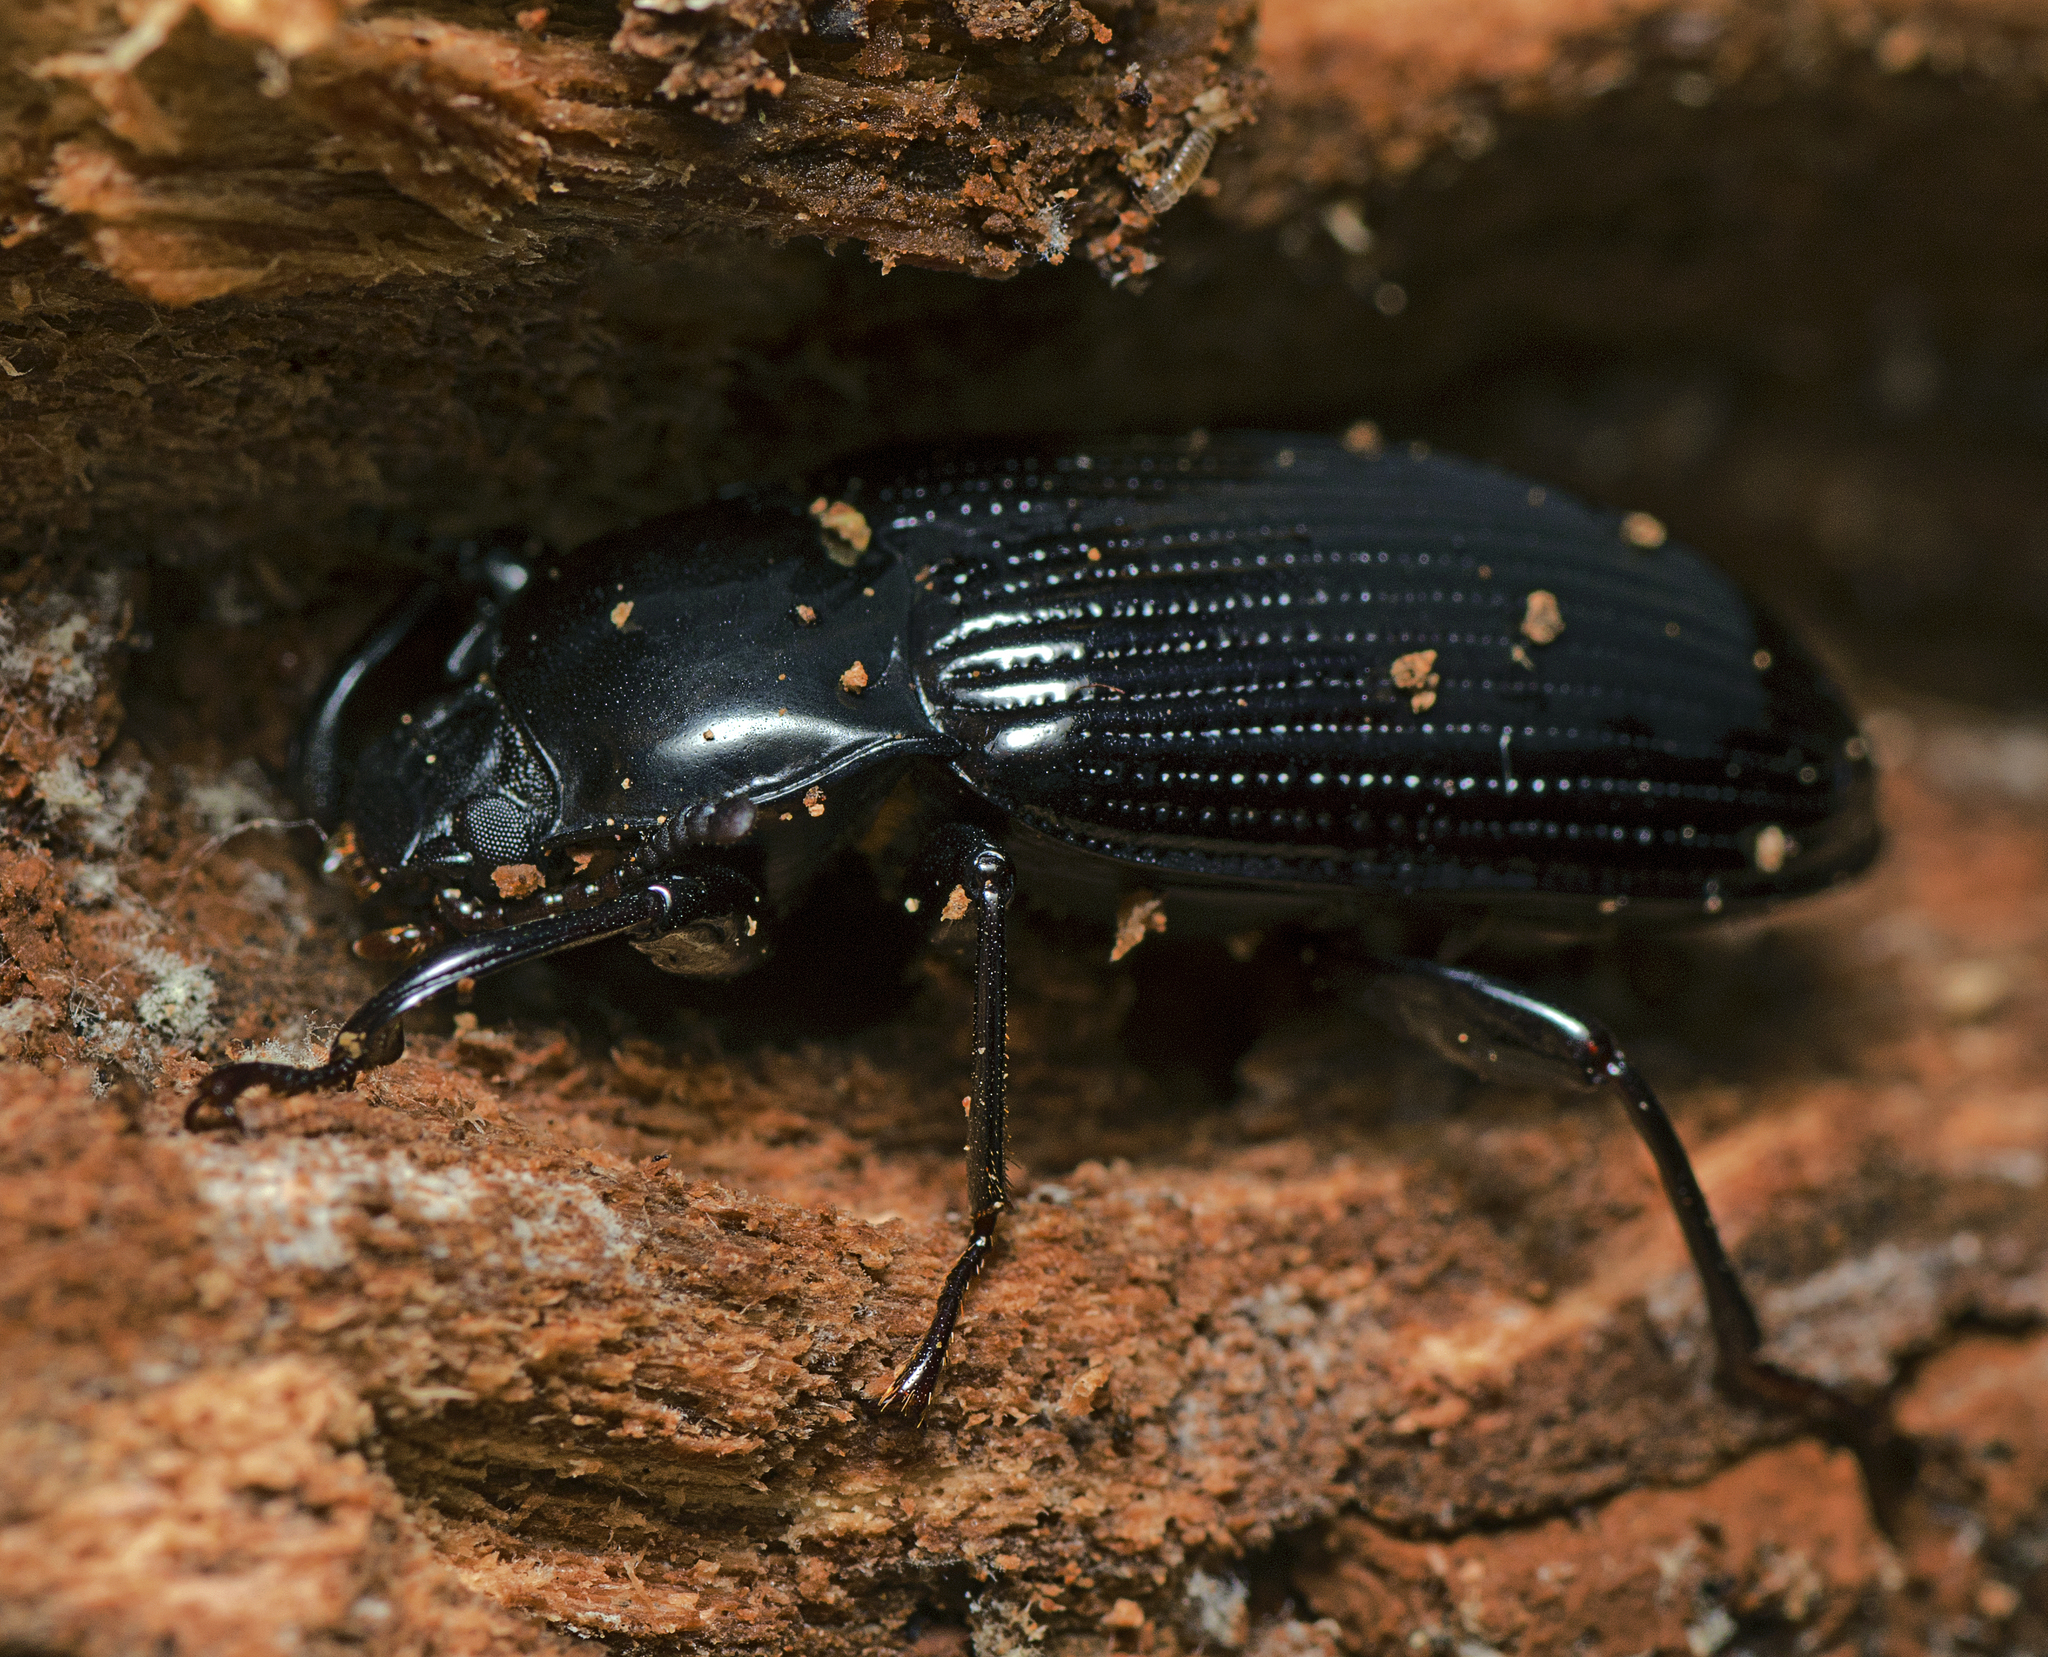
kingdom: Animalia
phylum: Arthropoda
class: Insecta
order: Coleoptera
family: Tenebrionidae
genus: Meneristes
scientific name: Meneristes australis
